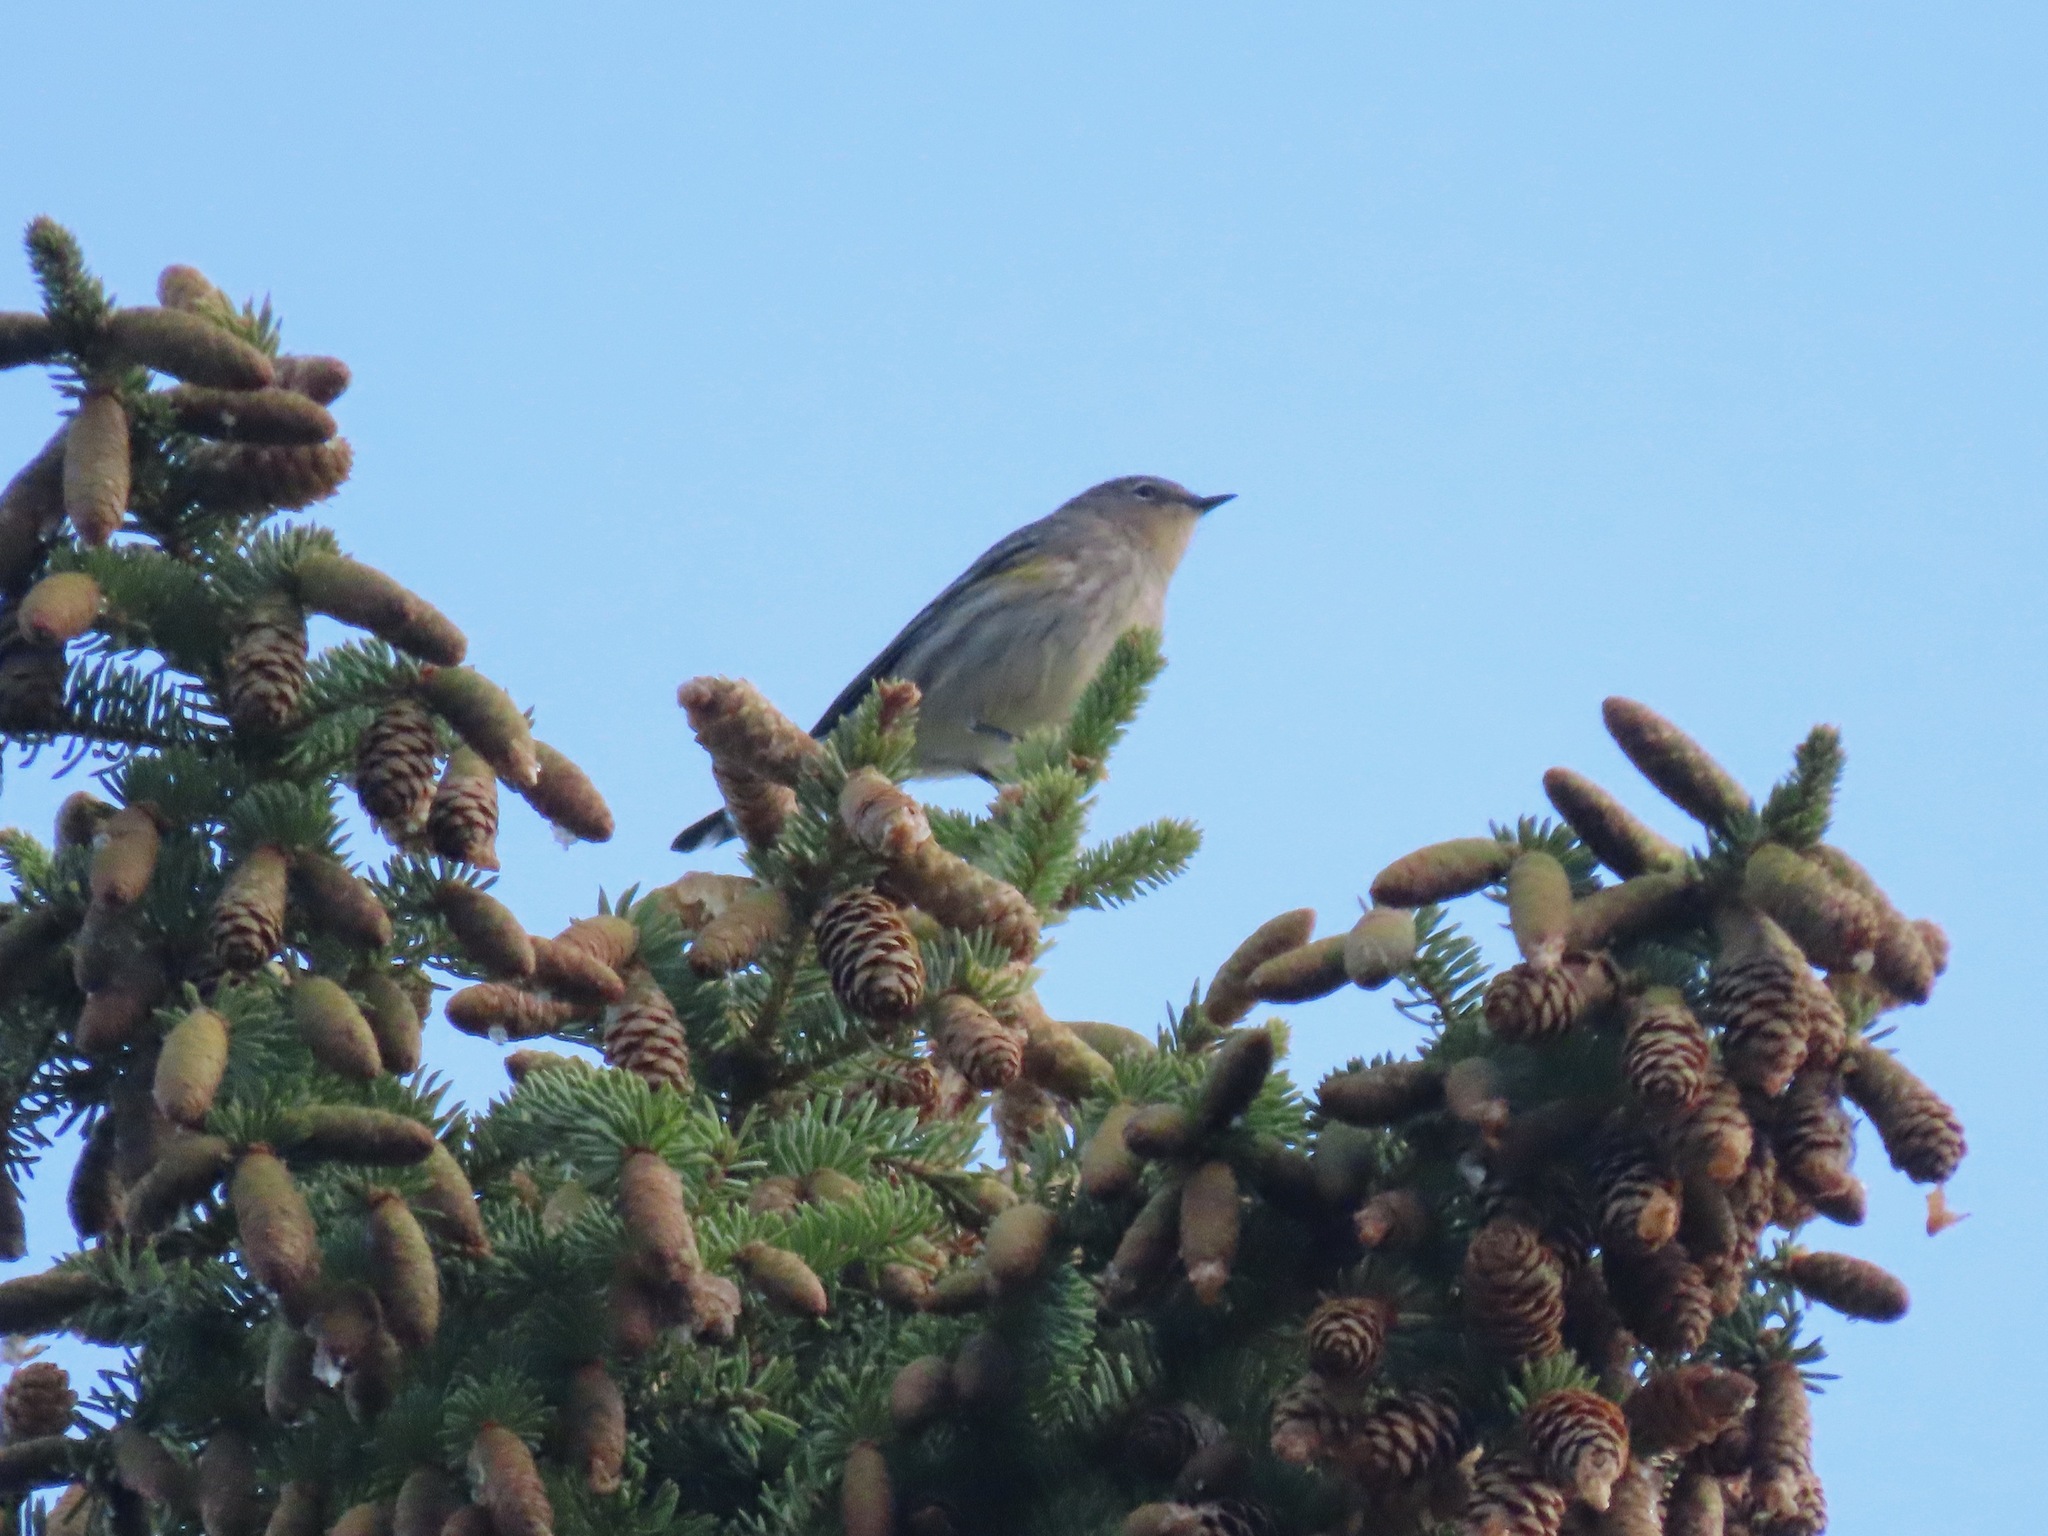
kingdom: Animalia
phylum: Chordata
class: Aves
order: Passeriformes
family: Parulidae
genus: Setophaga
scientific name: Setophaga coronata
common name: Myrtle warbler
